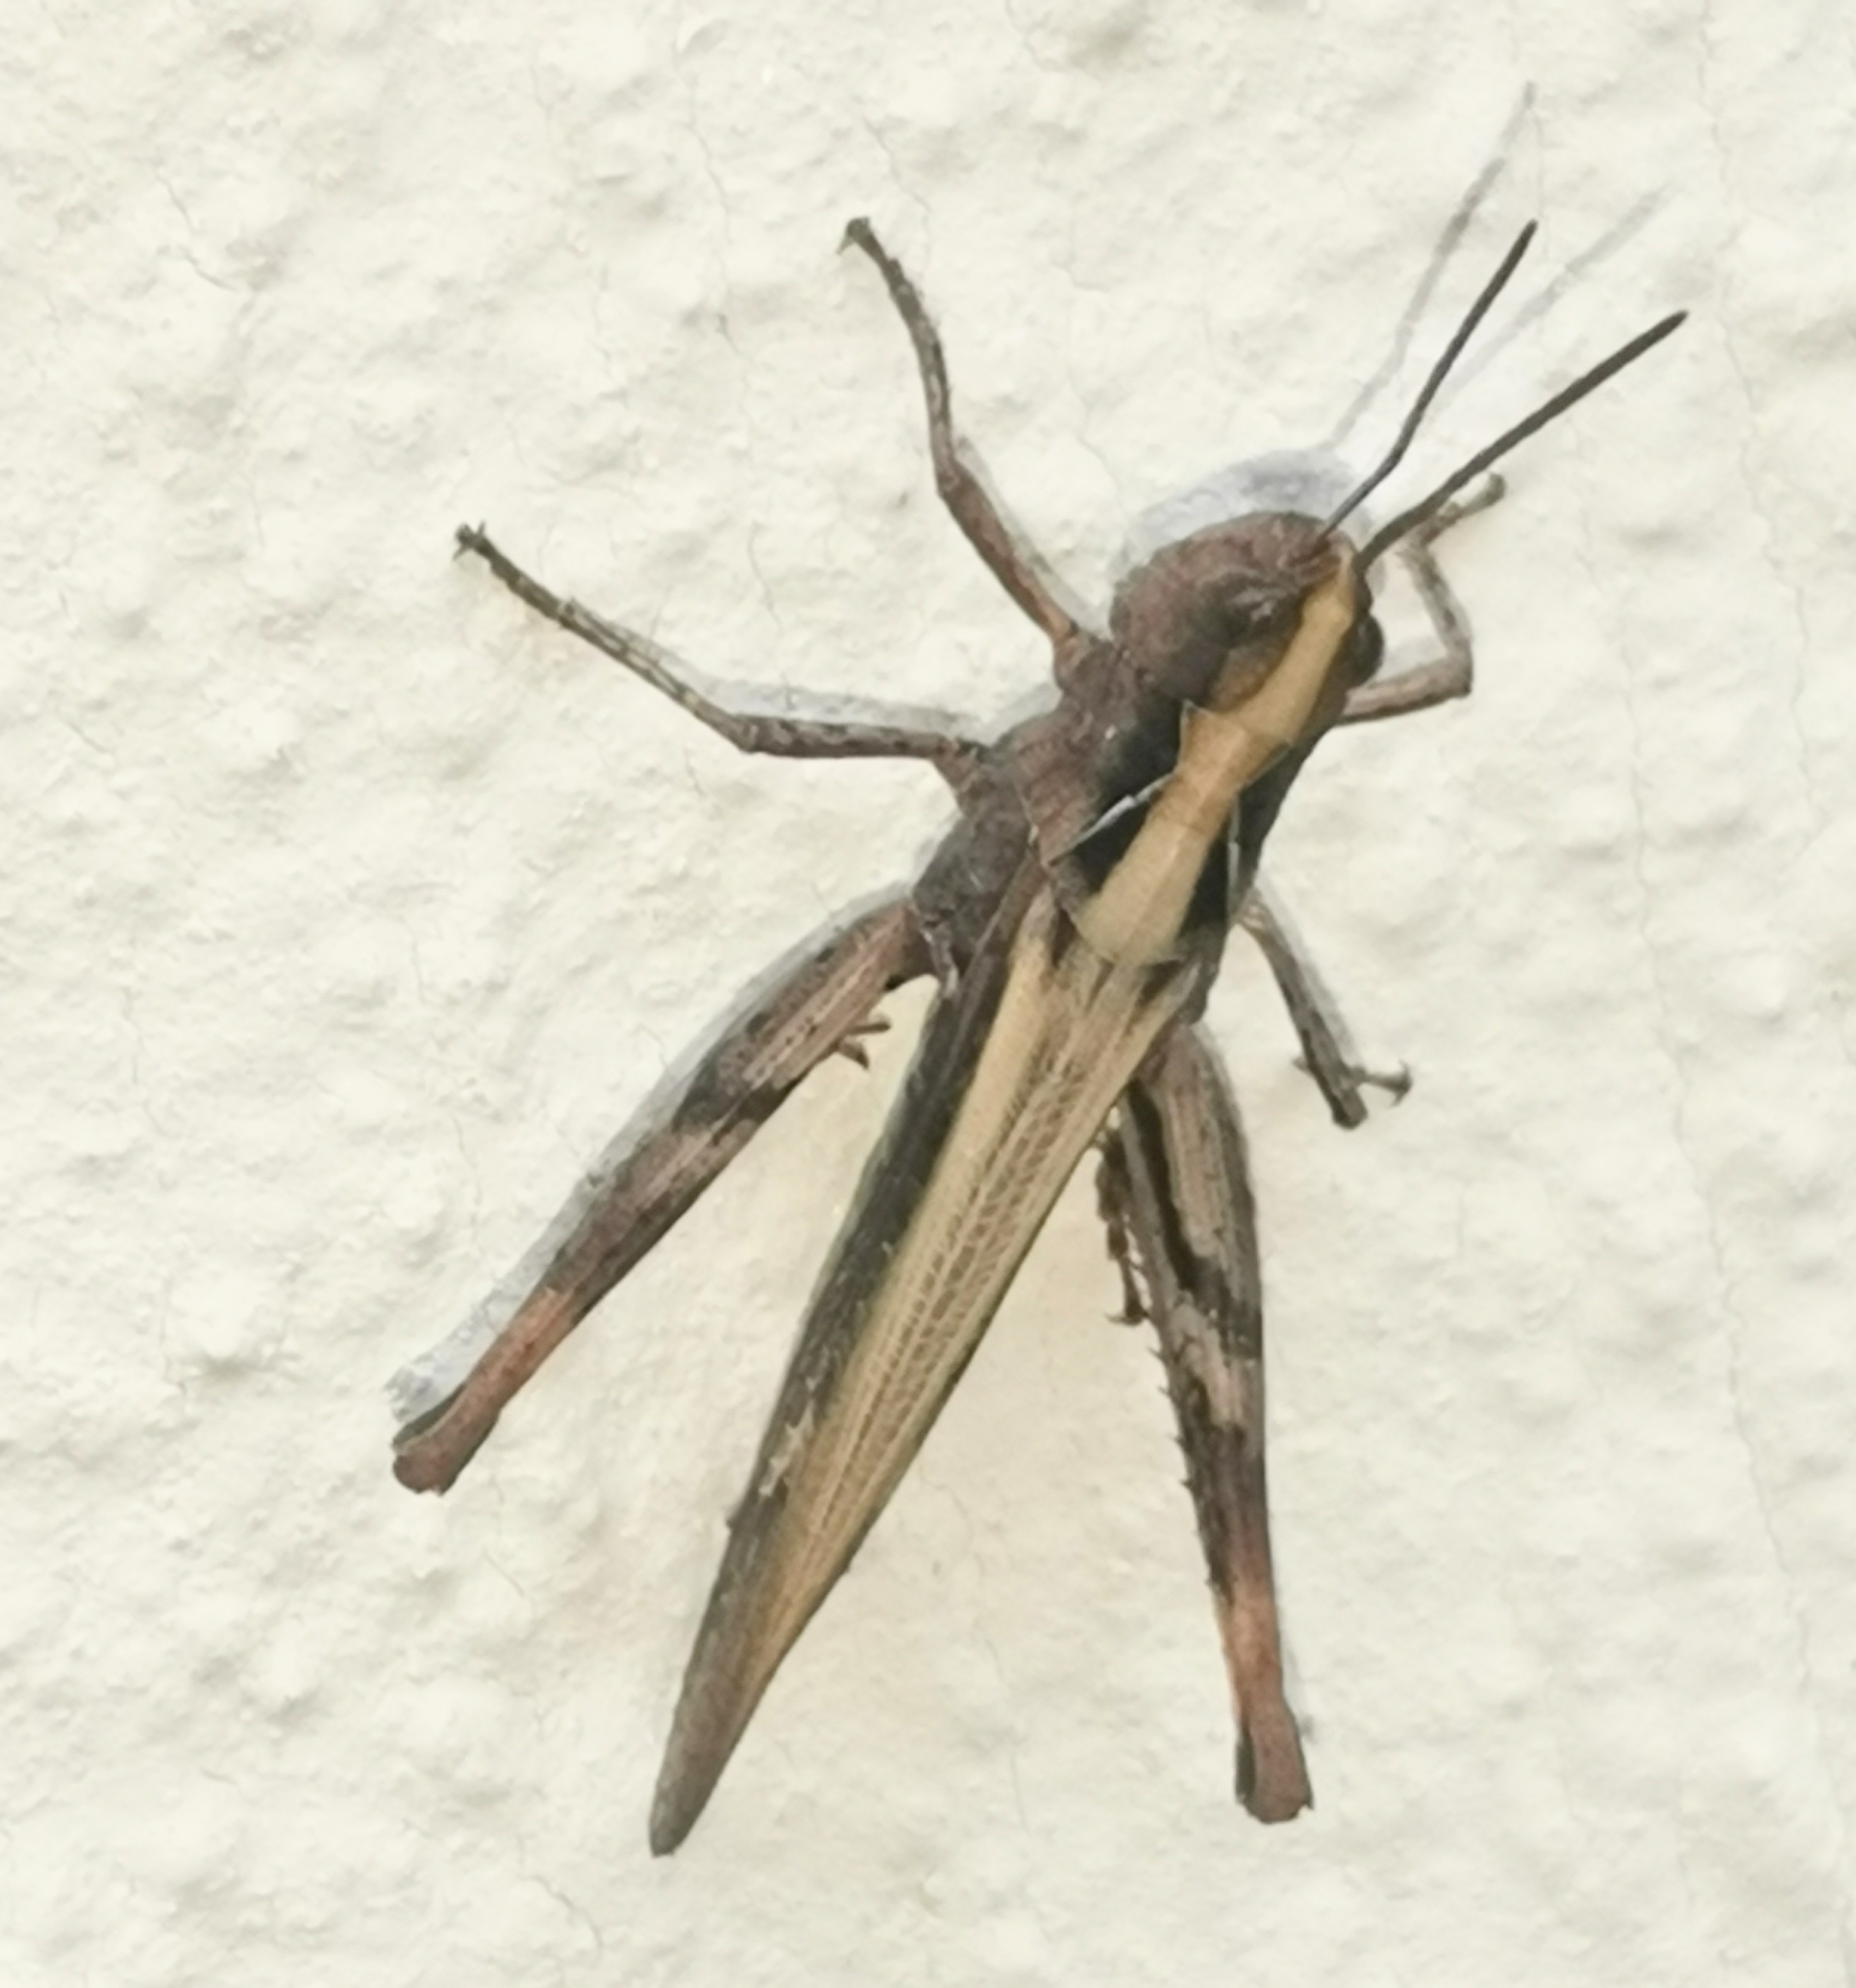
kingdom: Animalia
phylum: Arthropoda
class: Insecta
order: Orthoptera
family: Acrididae
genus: Chorthippus
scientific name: Chorthippus brunneus
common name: Field grasshopper
